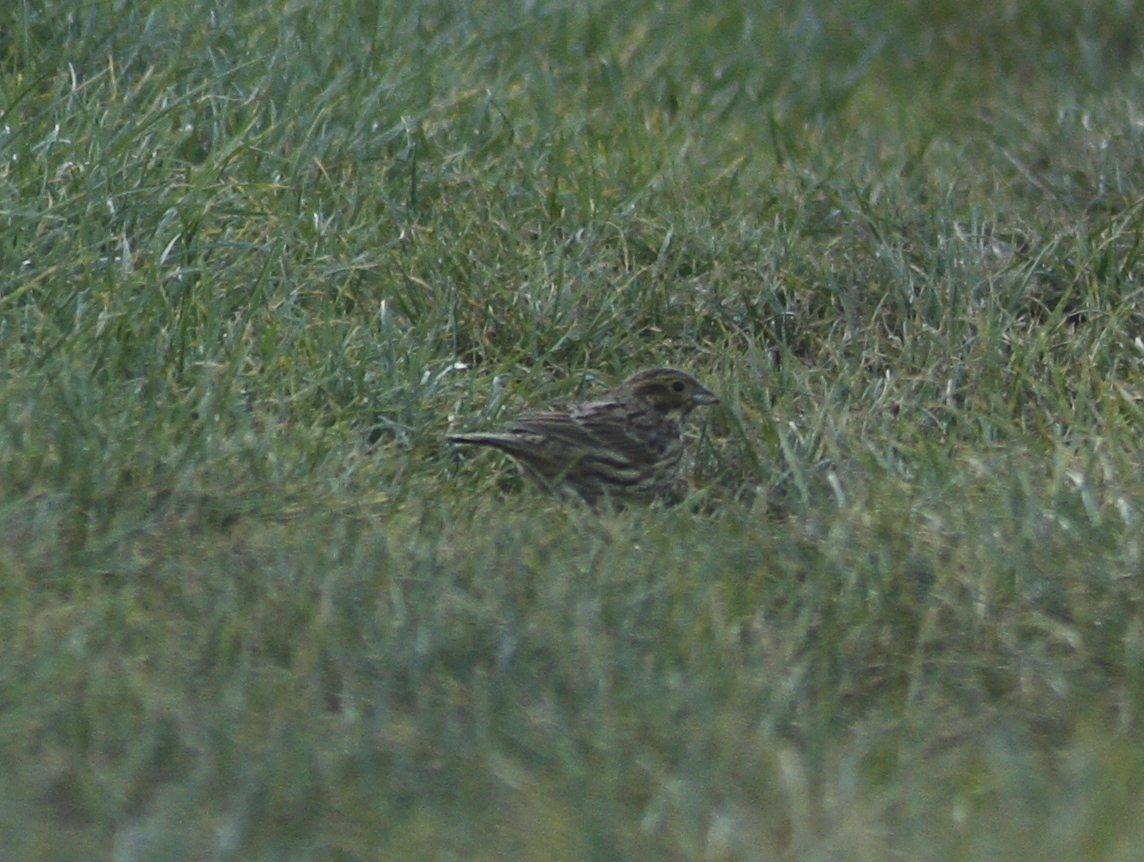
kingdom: Animalia
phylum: Chordata
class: Aves
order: Passeriformes
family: Emberizidae
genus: Emberiza
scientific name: Emberiza cirlus
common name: Cirl bunting
